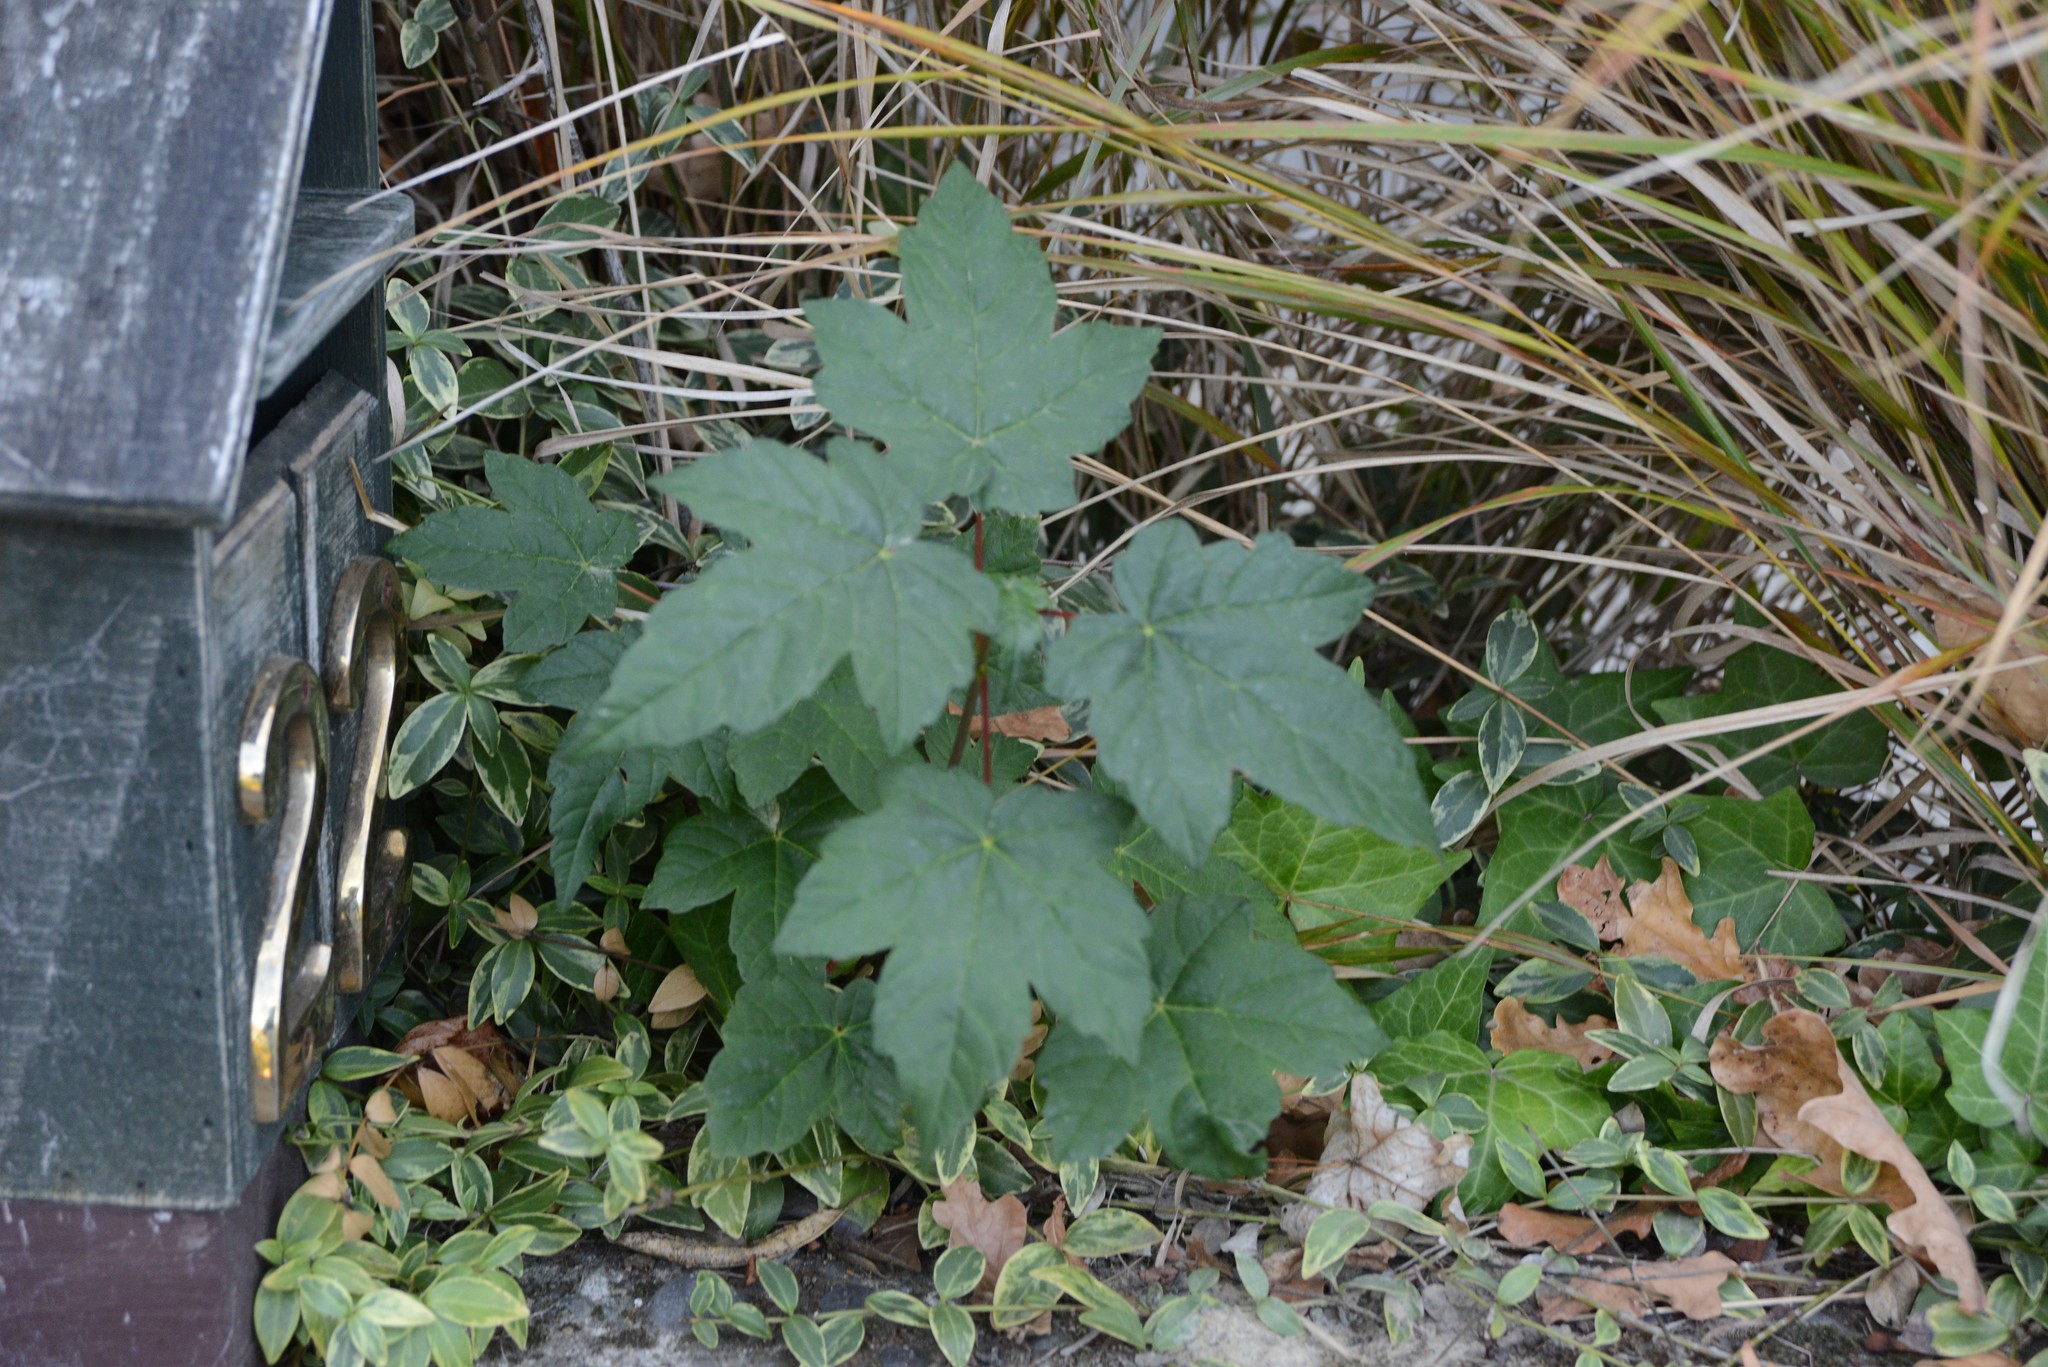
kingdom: Plantae
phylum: Tracheophyta
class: Magnoliopsida
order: Sapindales
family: Sapindaceae
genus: Acer
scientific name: Acer pseudoplatanus
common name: Sycamore
